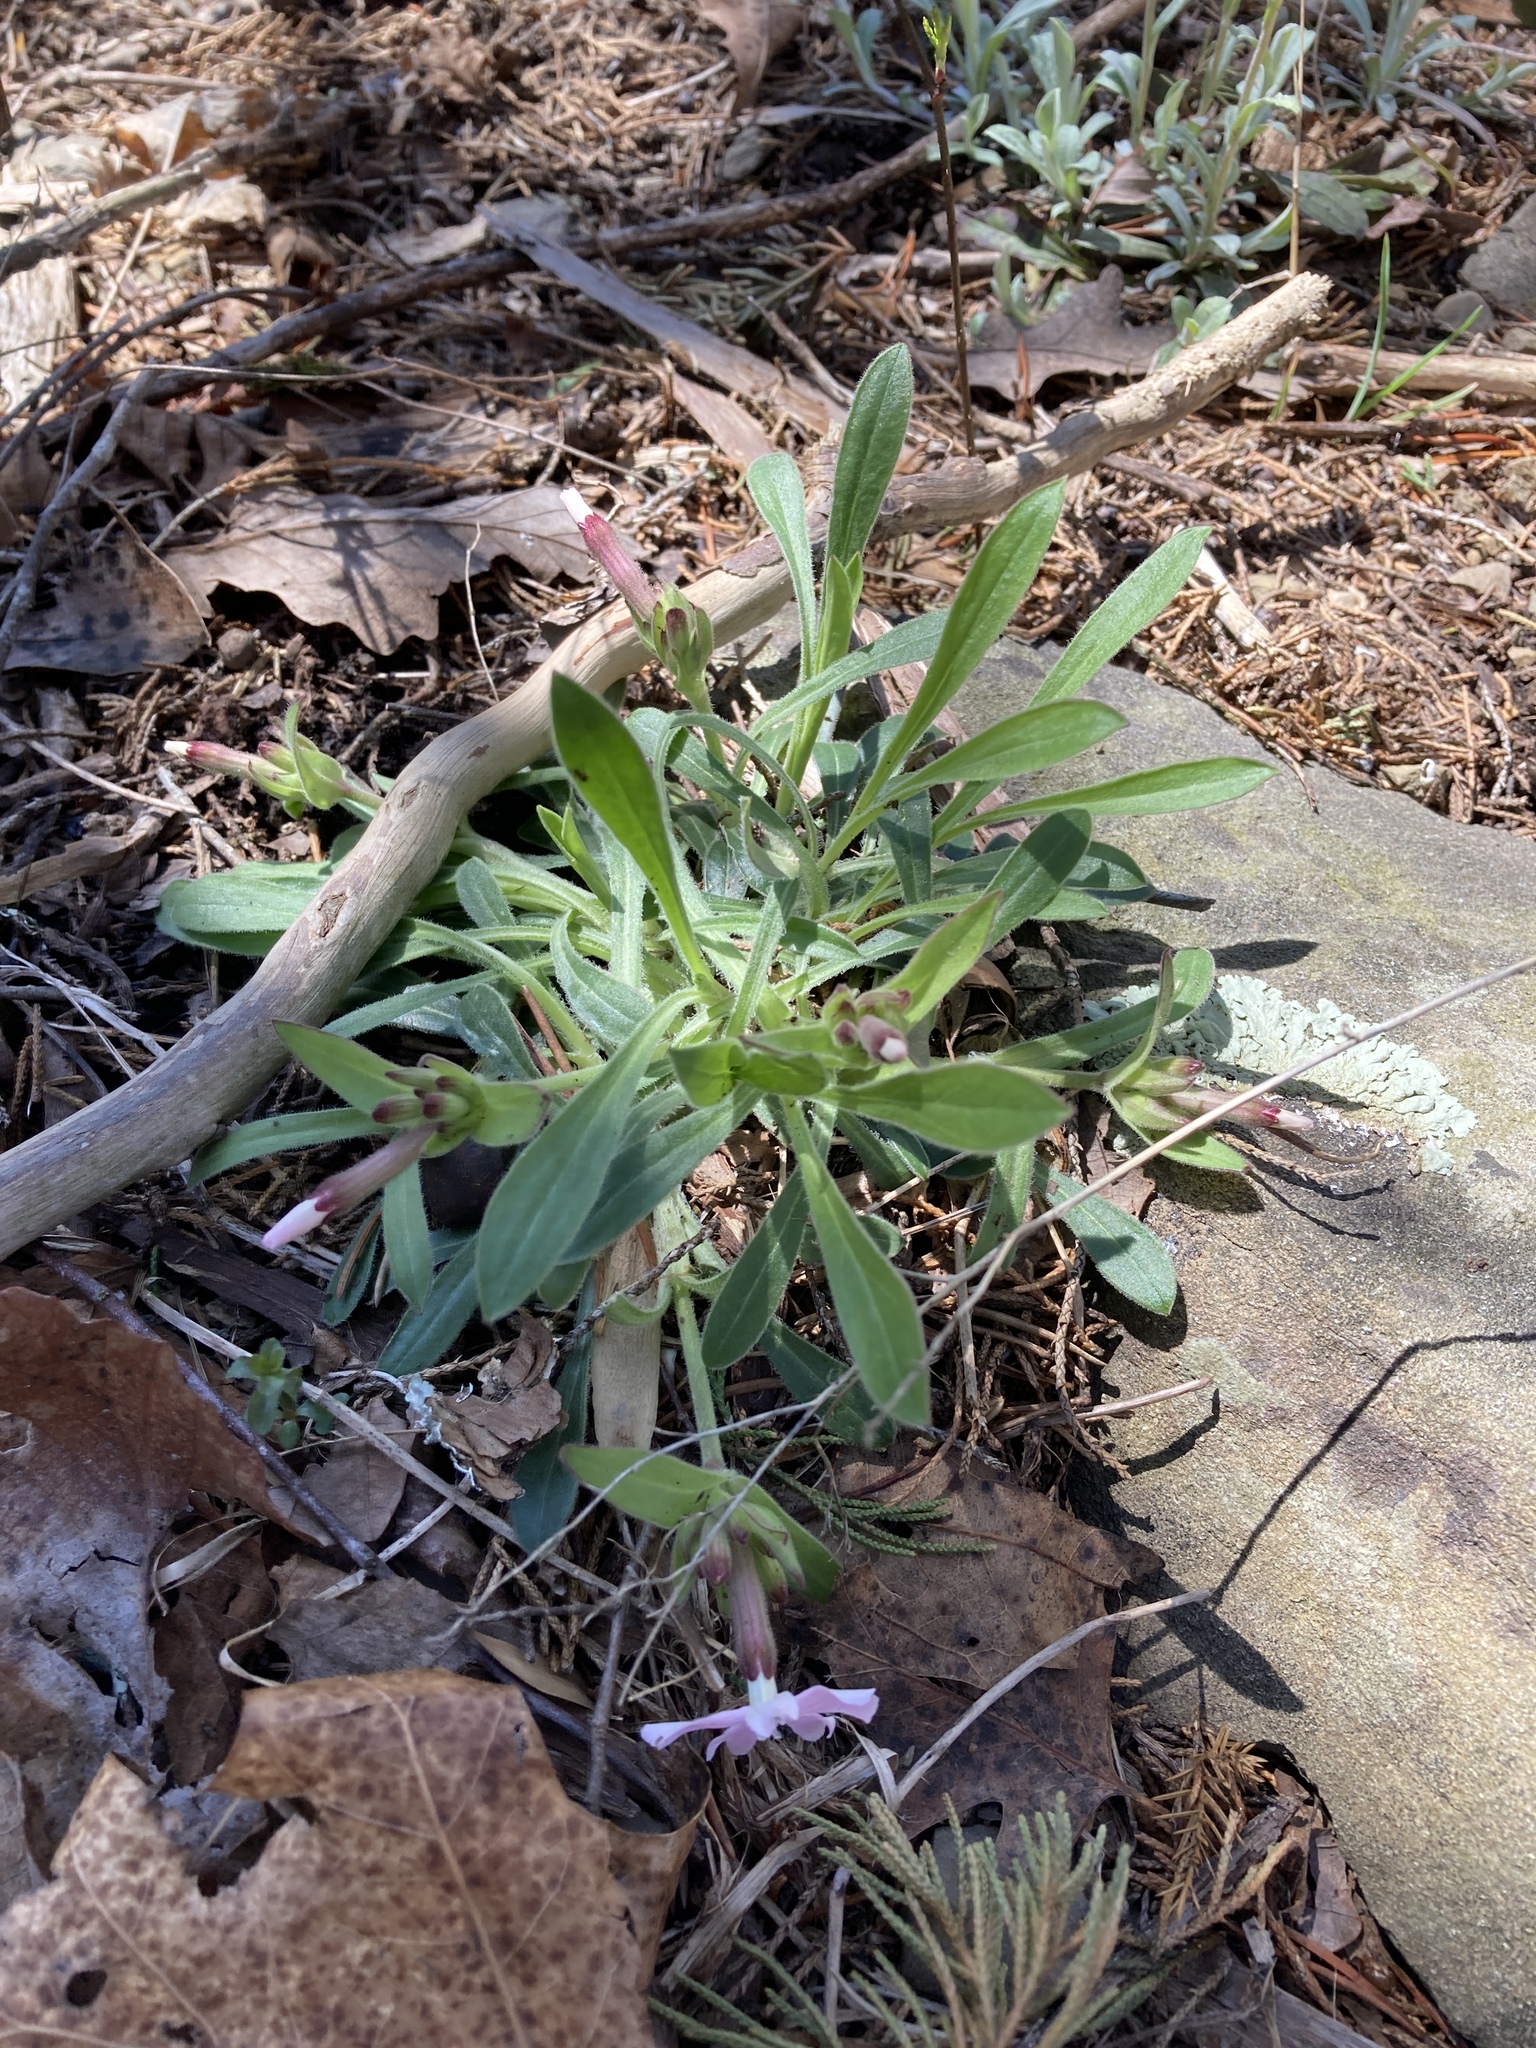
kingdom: Plantae
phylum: Tracheophyta
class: Magnoliopsida
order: Caryophyllales
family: Caryophyllaceae
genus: Silene
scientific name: Silene caroliniana
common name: Sticky catchfly
